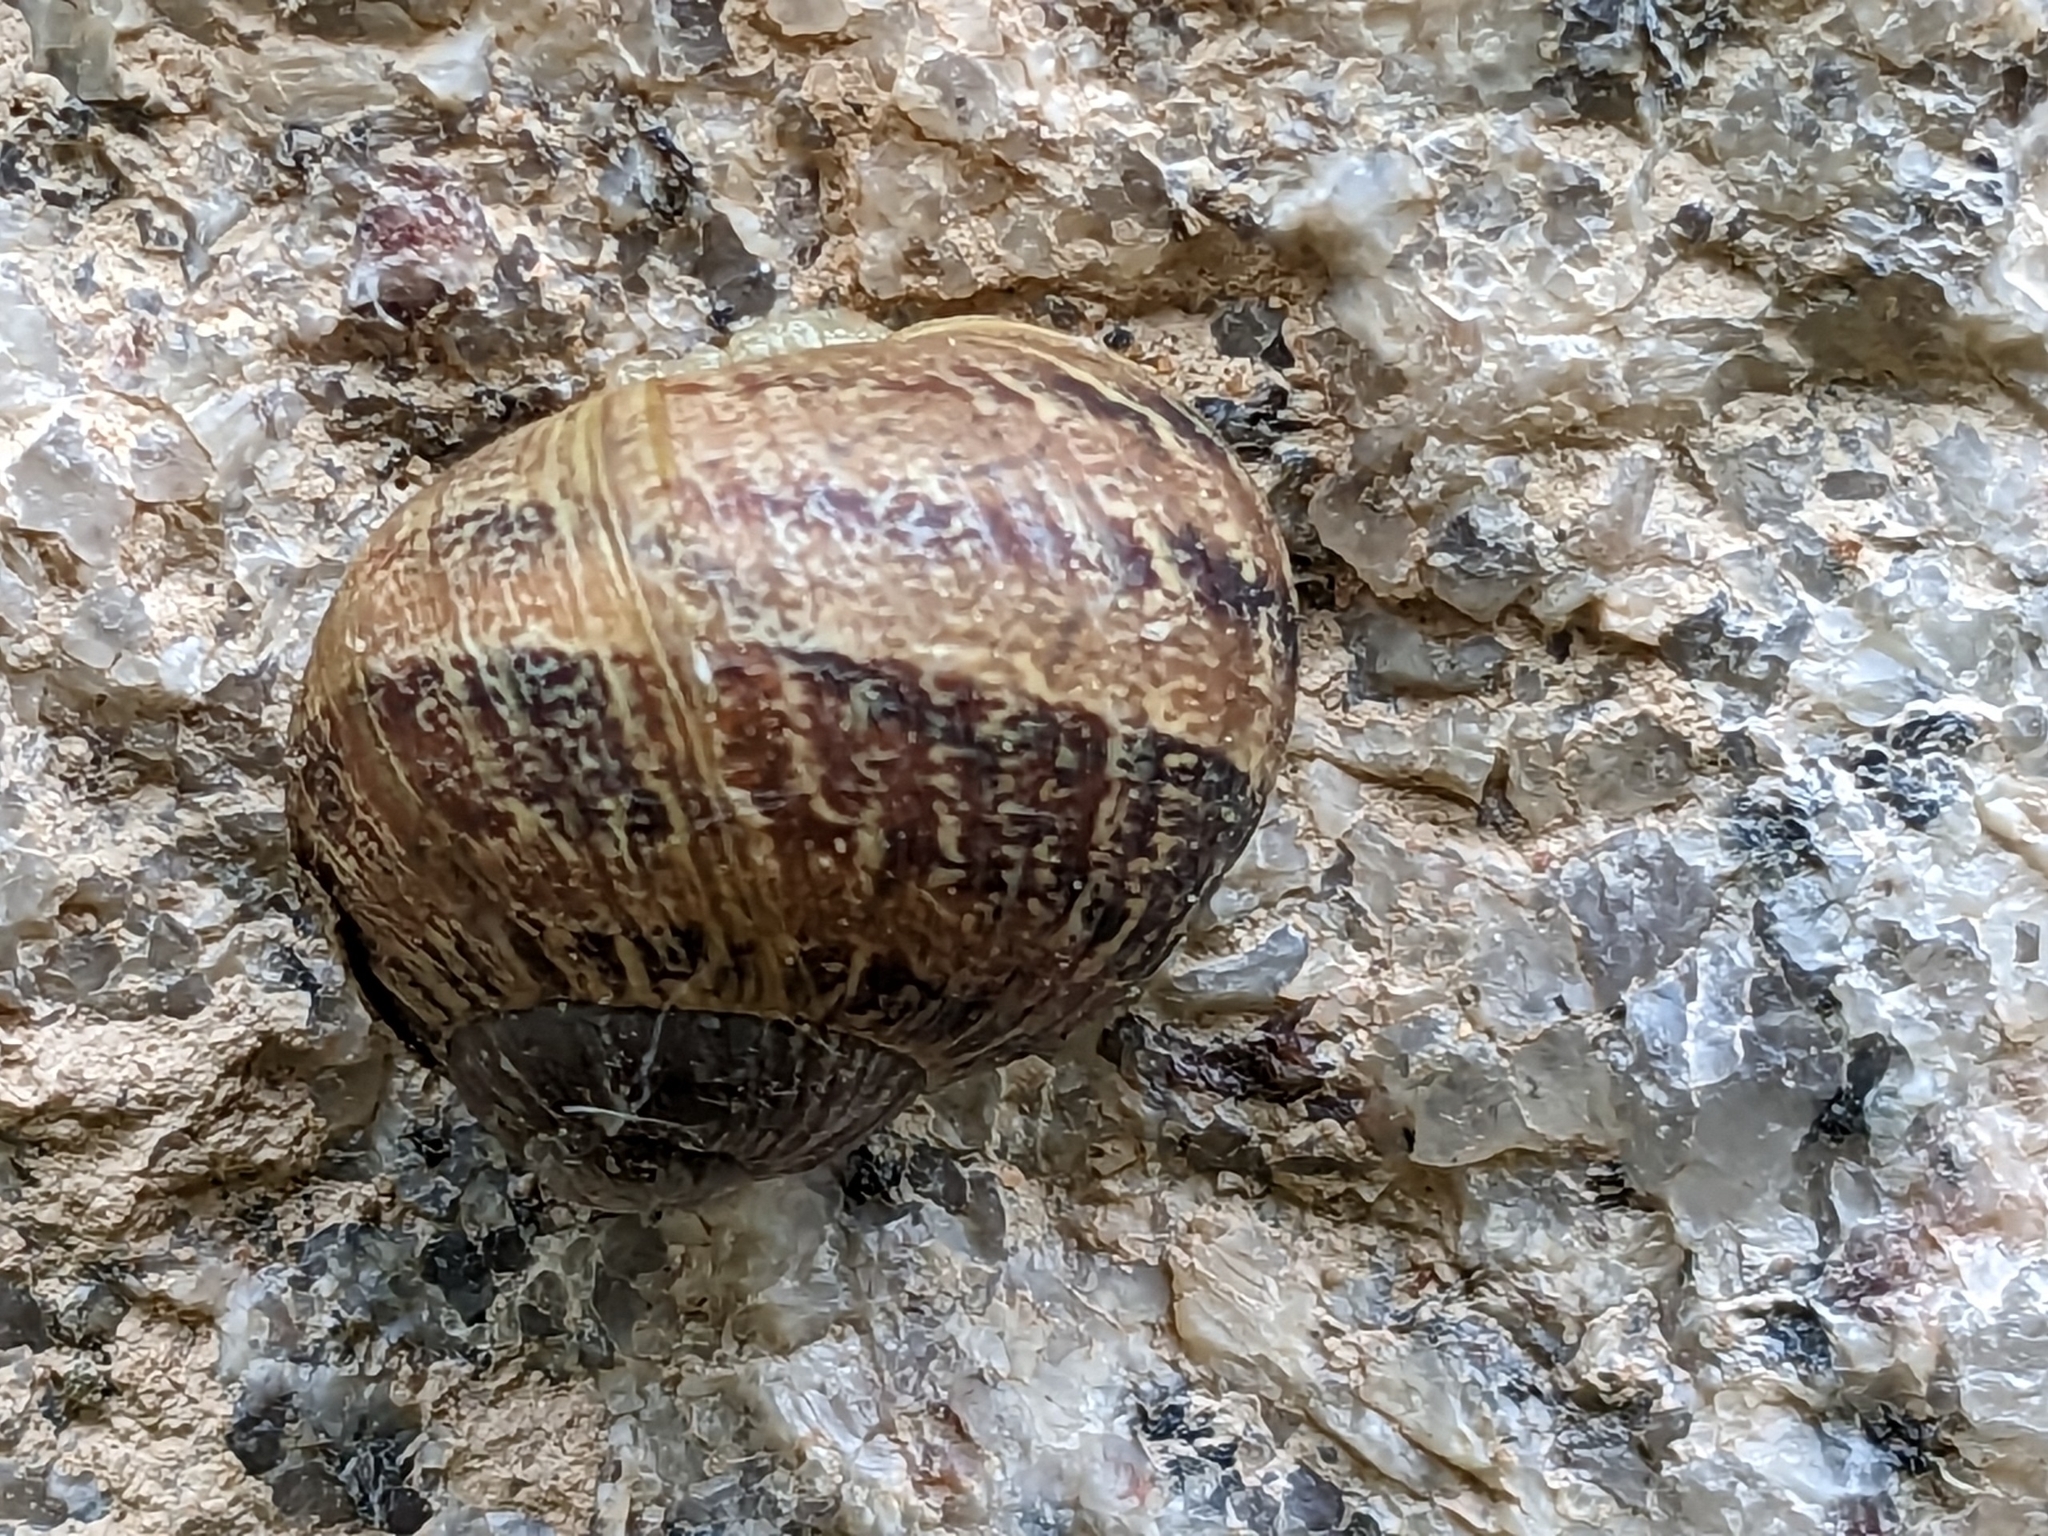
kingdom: Animalia
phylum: Mollusca
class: Gastropoda
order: Stylommatophora
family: Helicidae
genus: Cornu
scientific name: Cornu aspersum
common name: Brown garden snail
